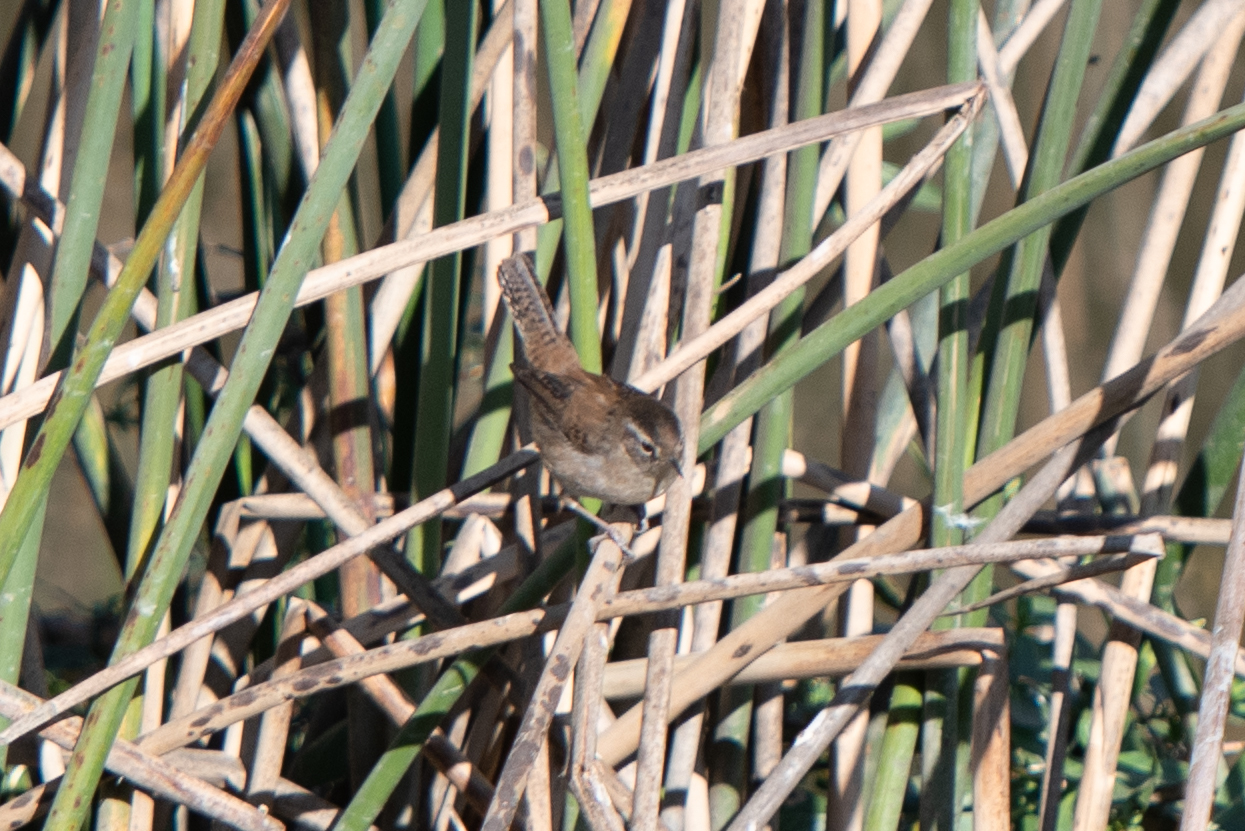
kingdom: Animalia
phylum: Chordata
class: Aves
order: Passeriformes
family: Troglodytidae
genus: Cistothorus
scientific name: Cistothorus palustris
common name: Marsh wren
